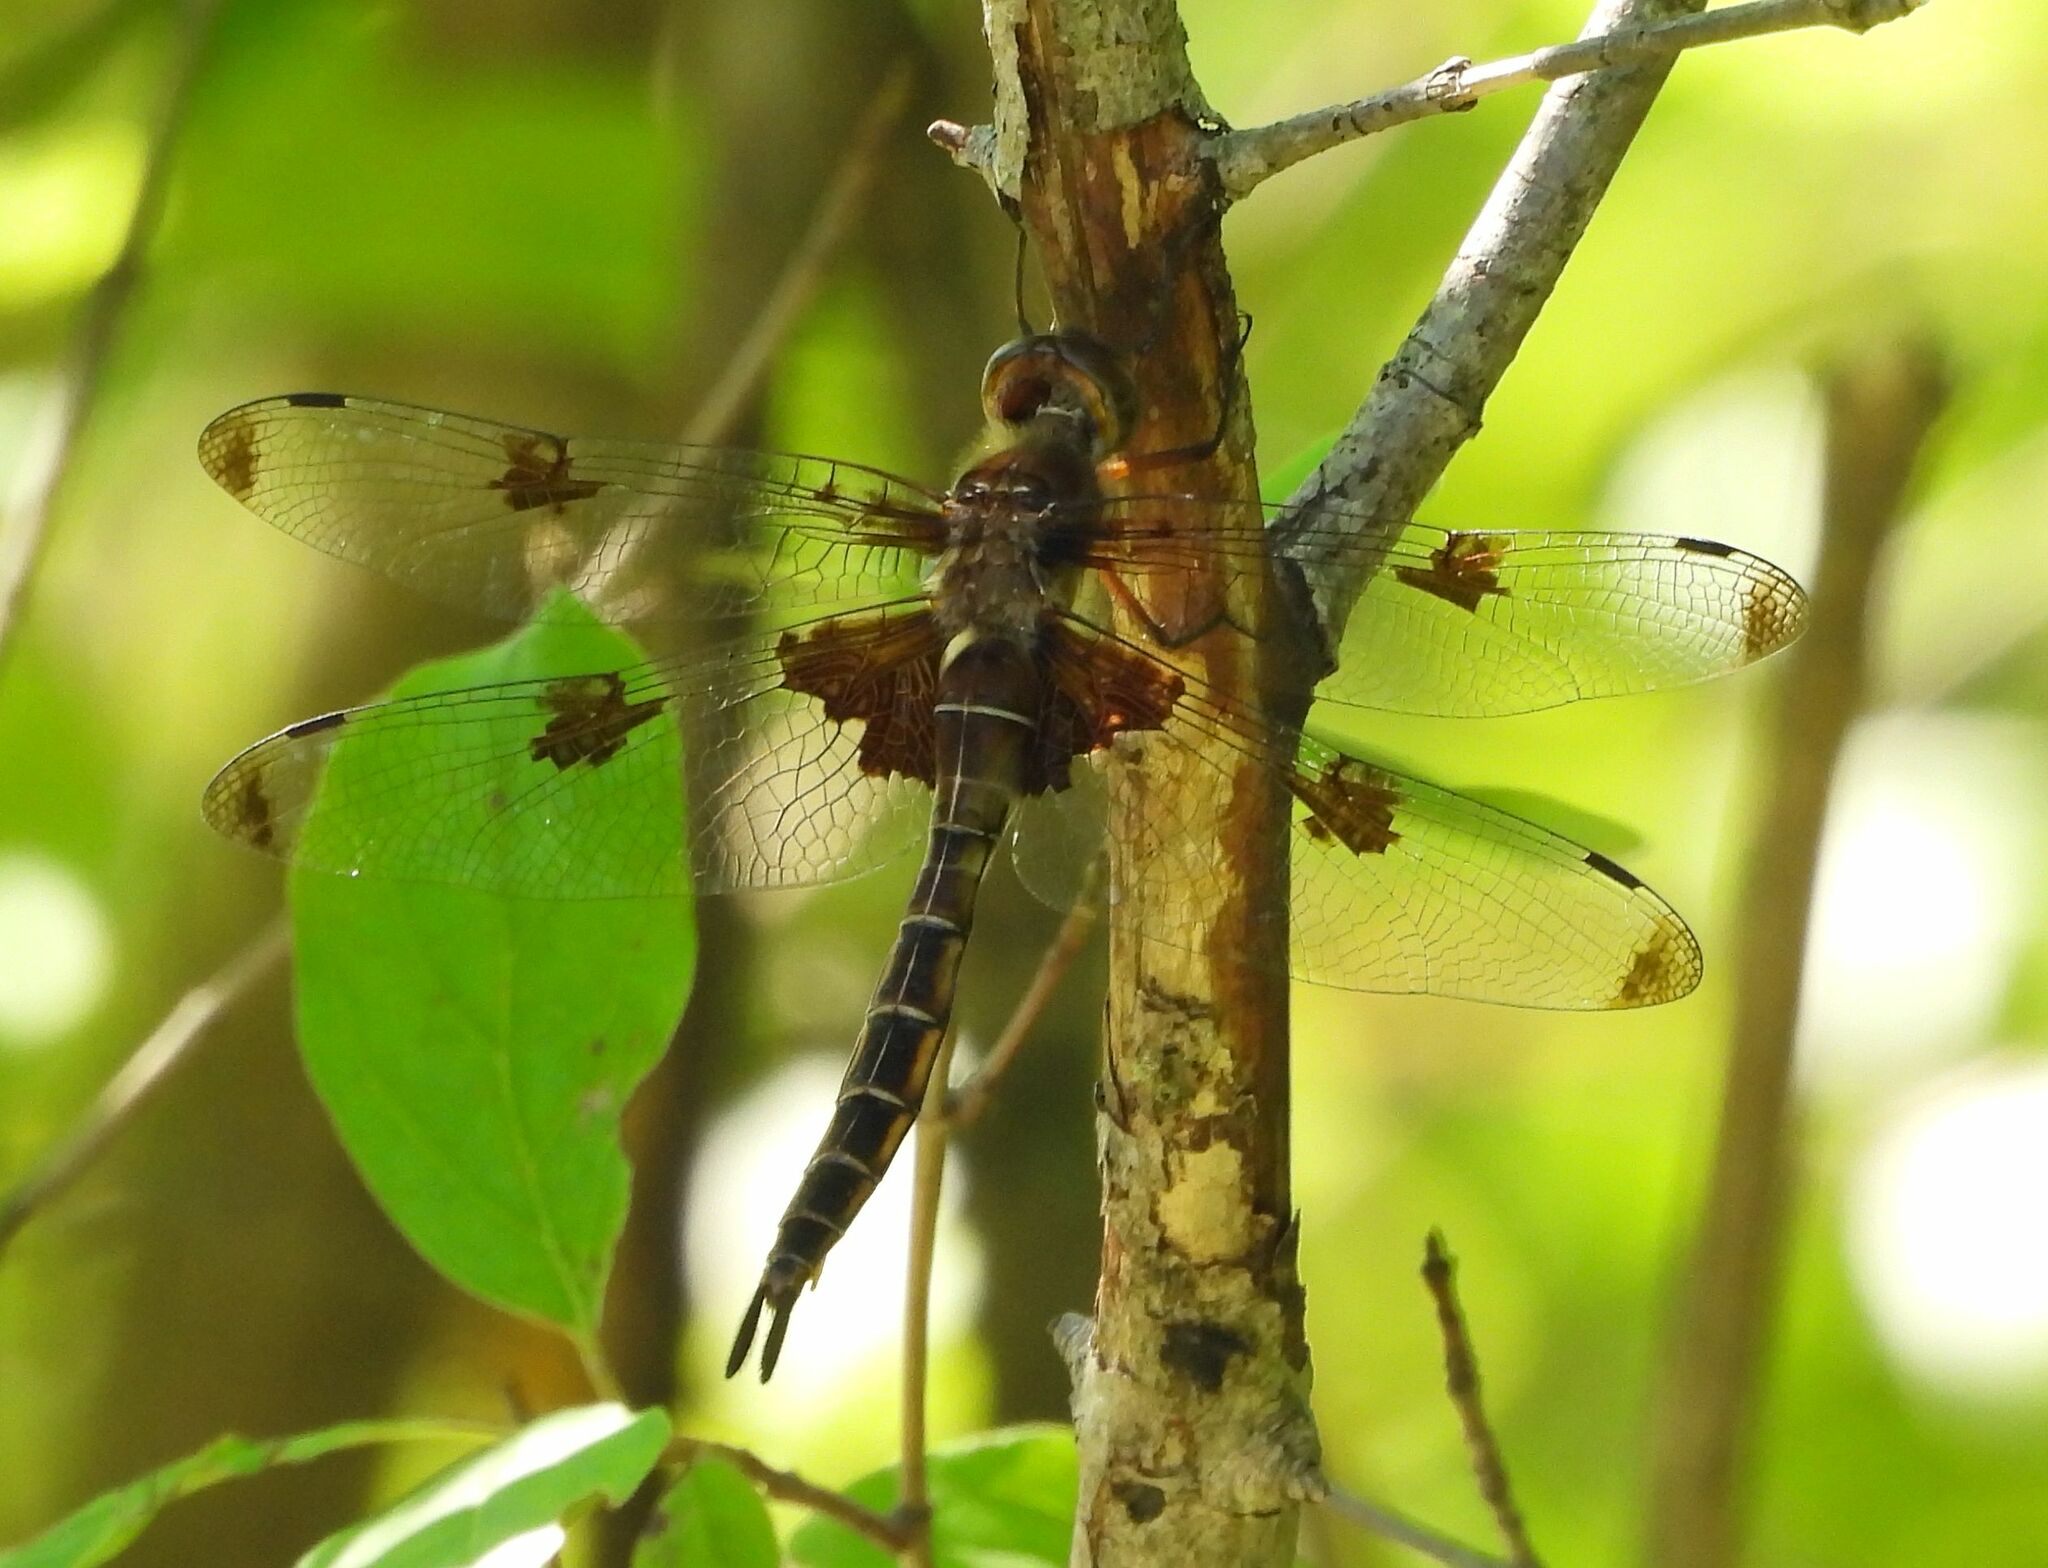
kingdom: Animalia
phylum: Arthropoda
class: Insecta
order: Odonata
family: Corduliidae
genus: Epitheca
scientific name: Epitheca princeps
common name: Prince baskettail
